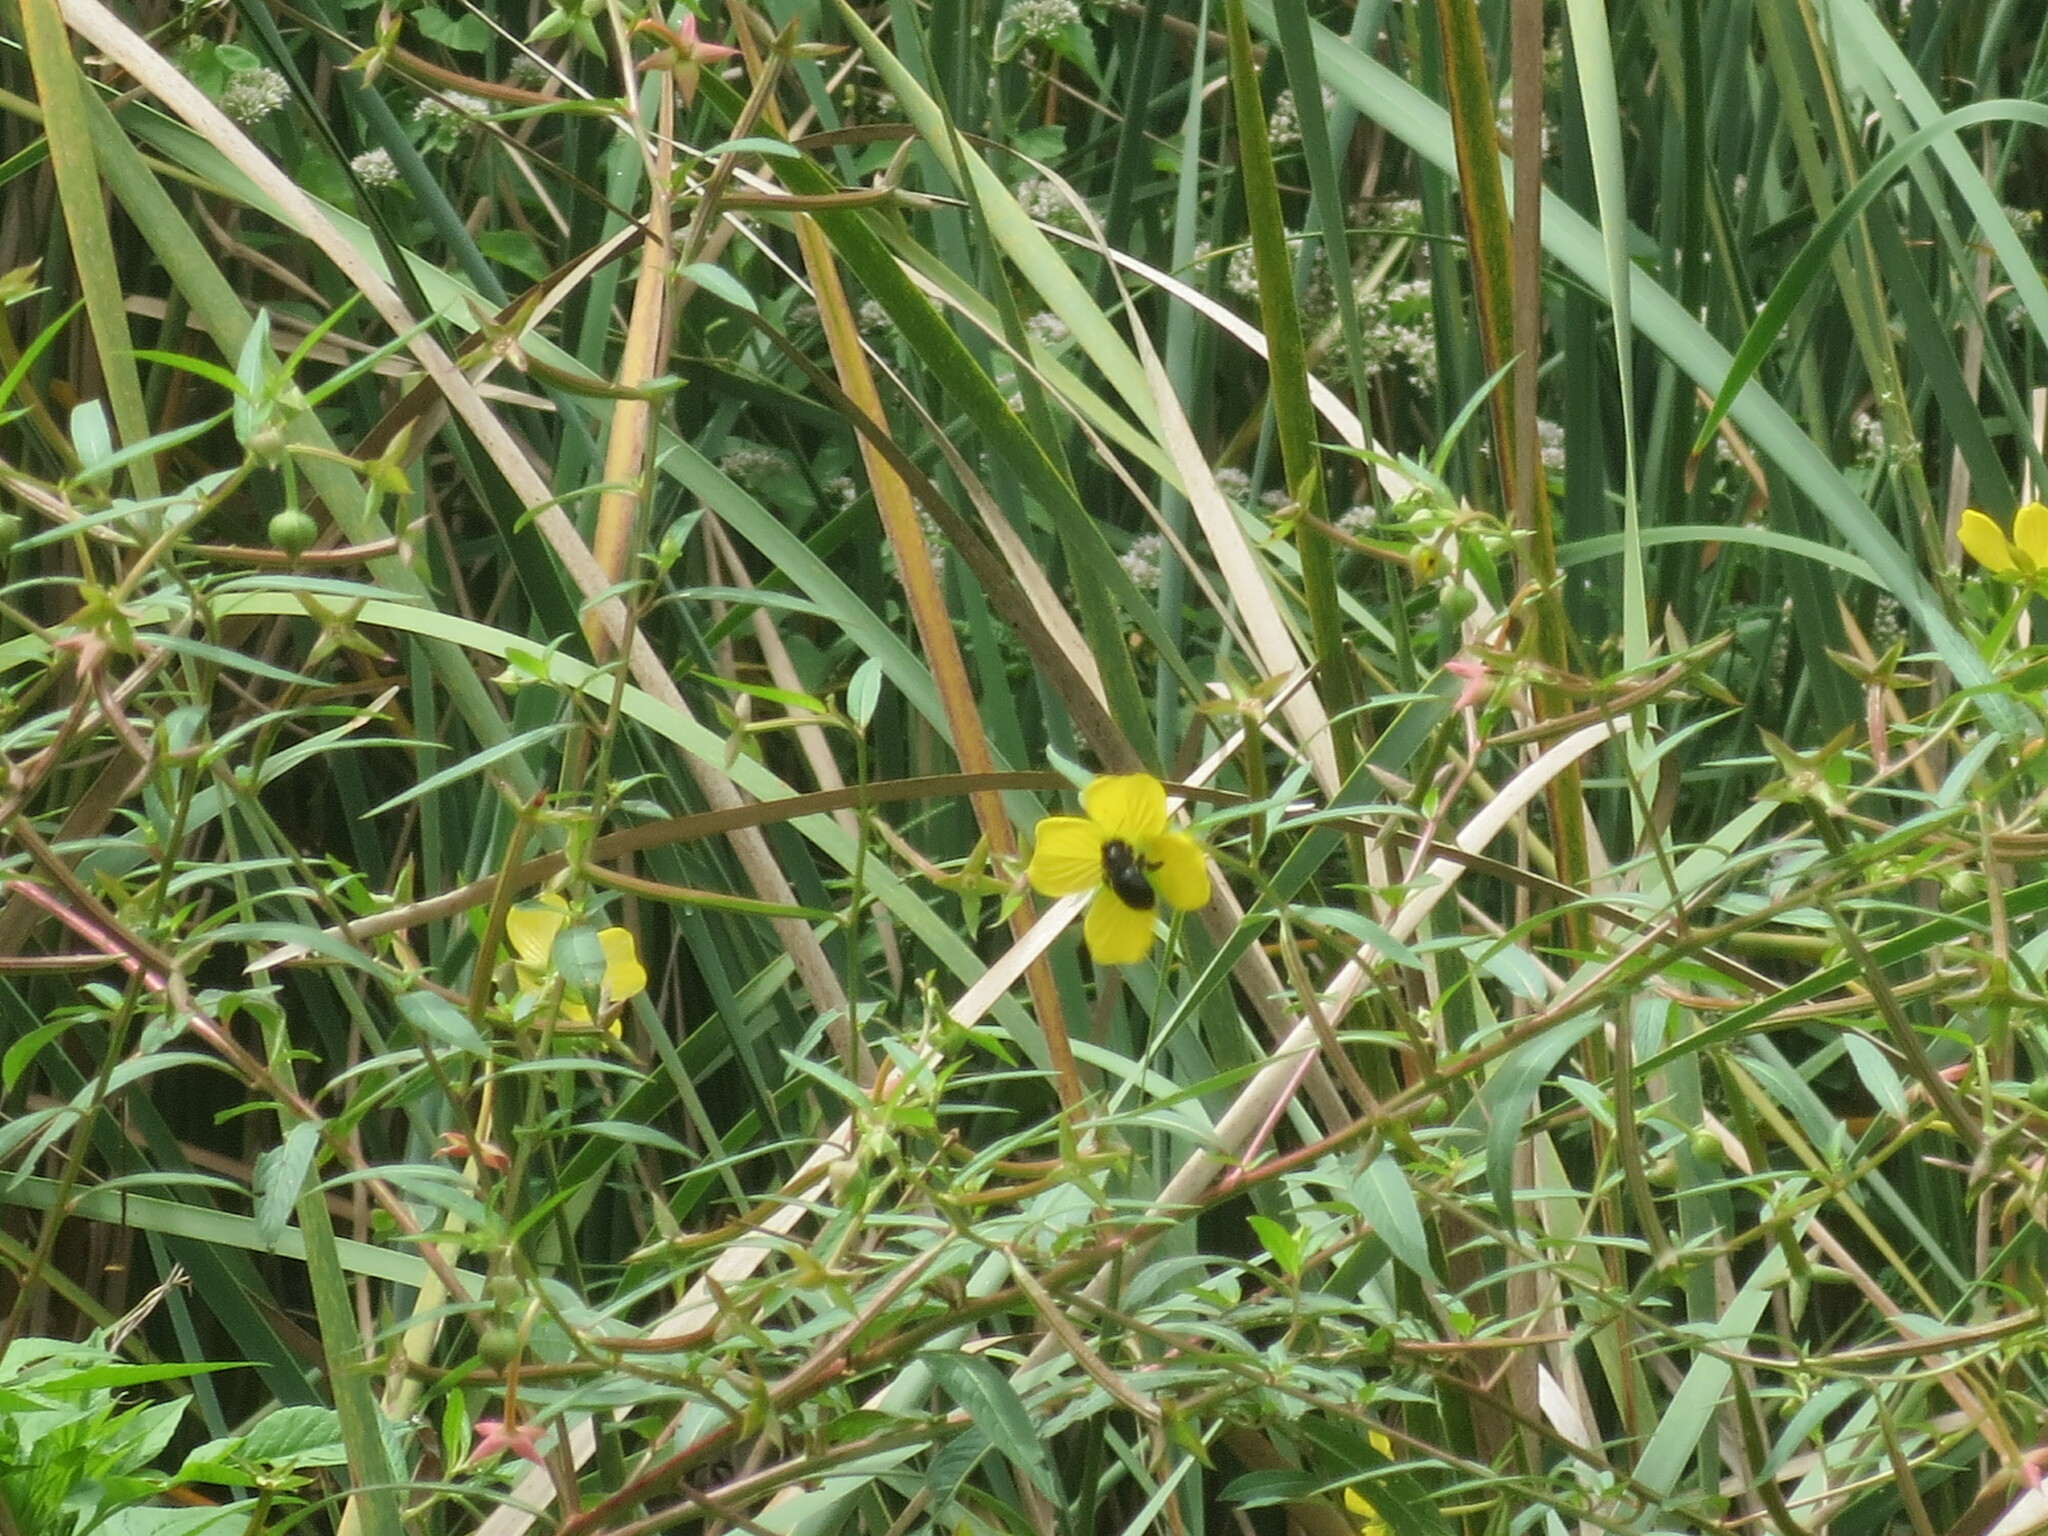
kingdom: Plantae
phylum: Tracheophyta
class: Magnoliopsida
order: Myrtales
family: Onagraceae
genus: Ludwigia
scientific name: Ludwigia octovalvis
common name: Water-primrose
